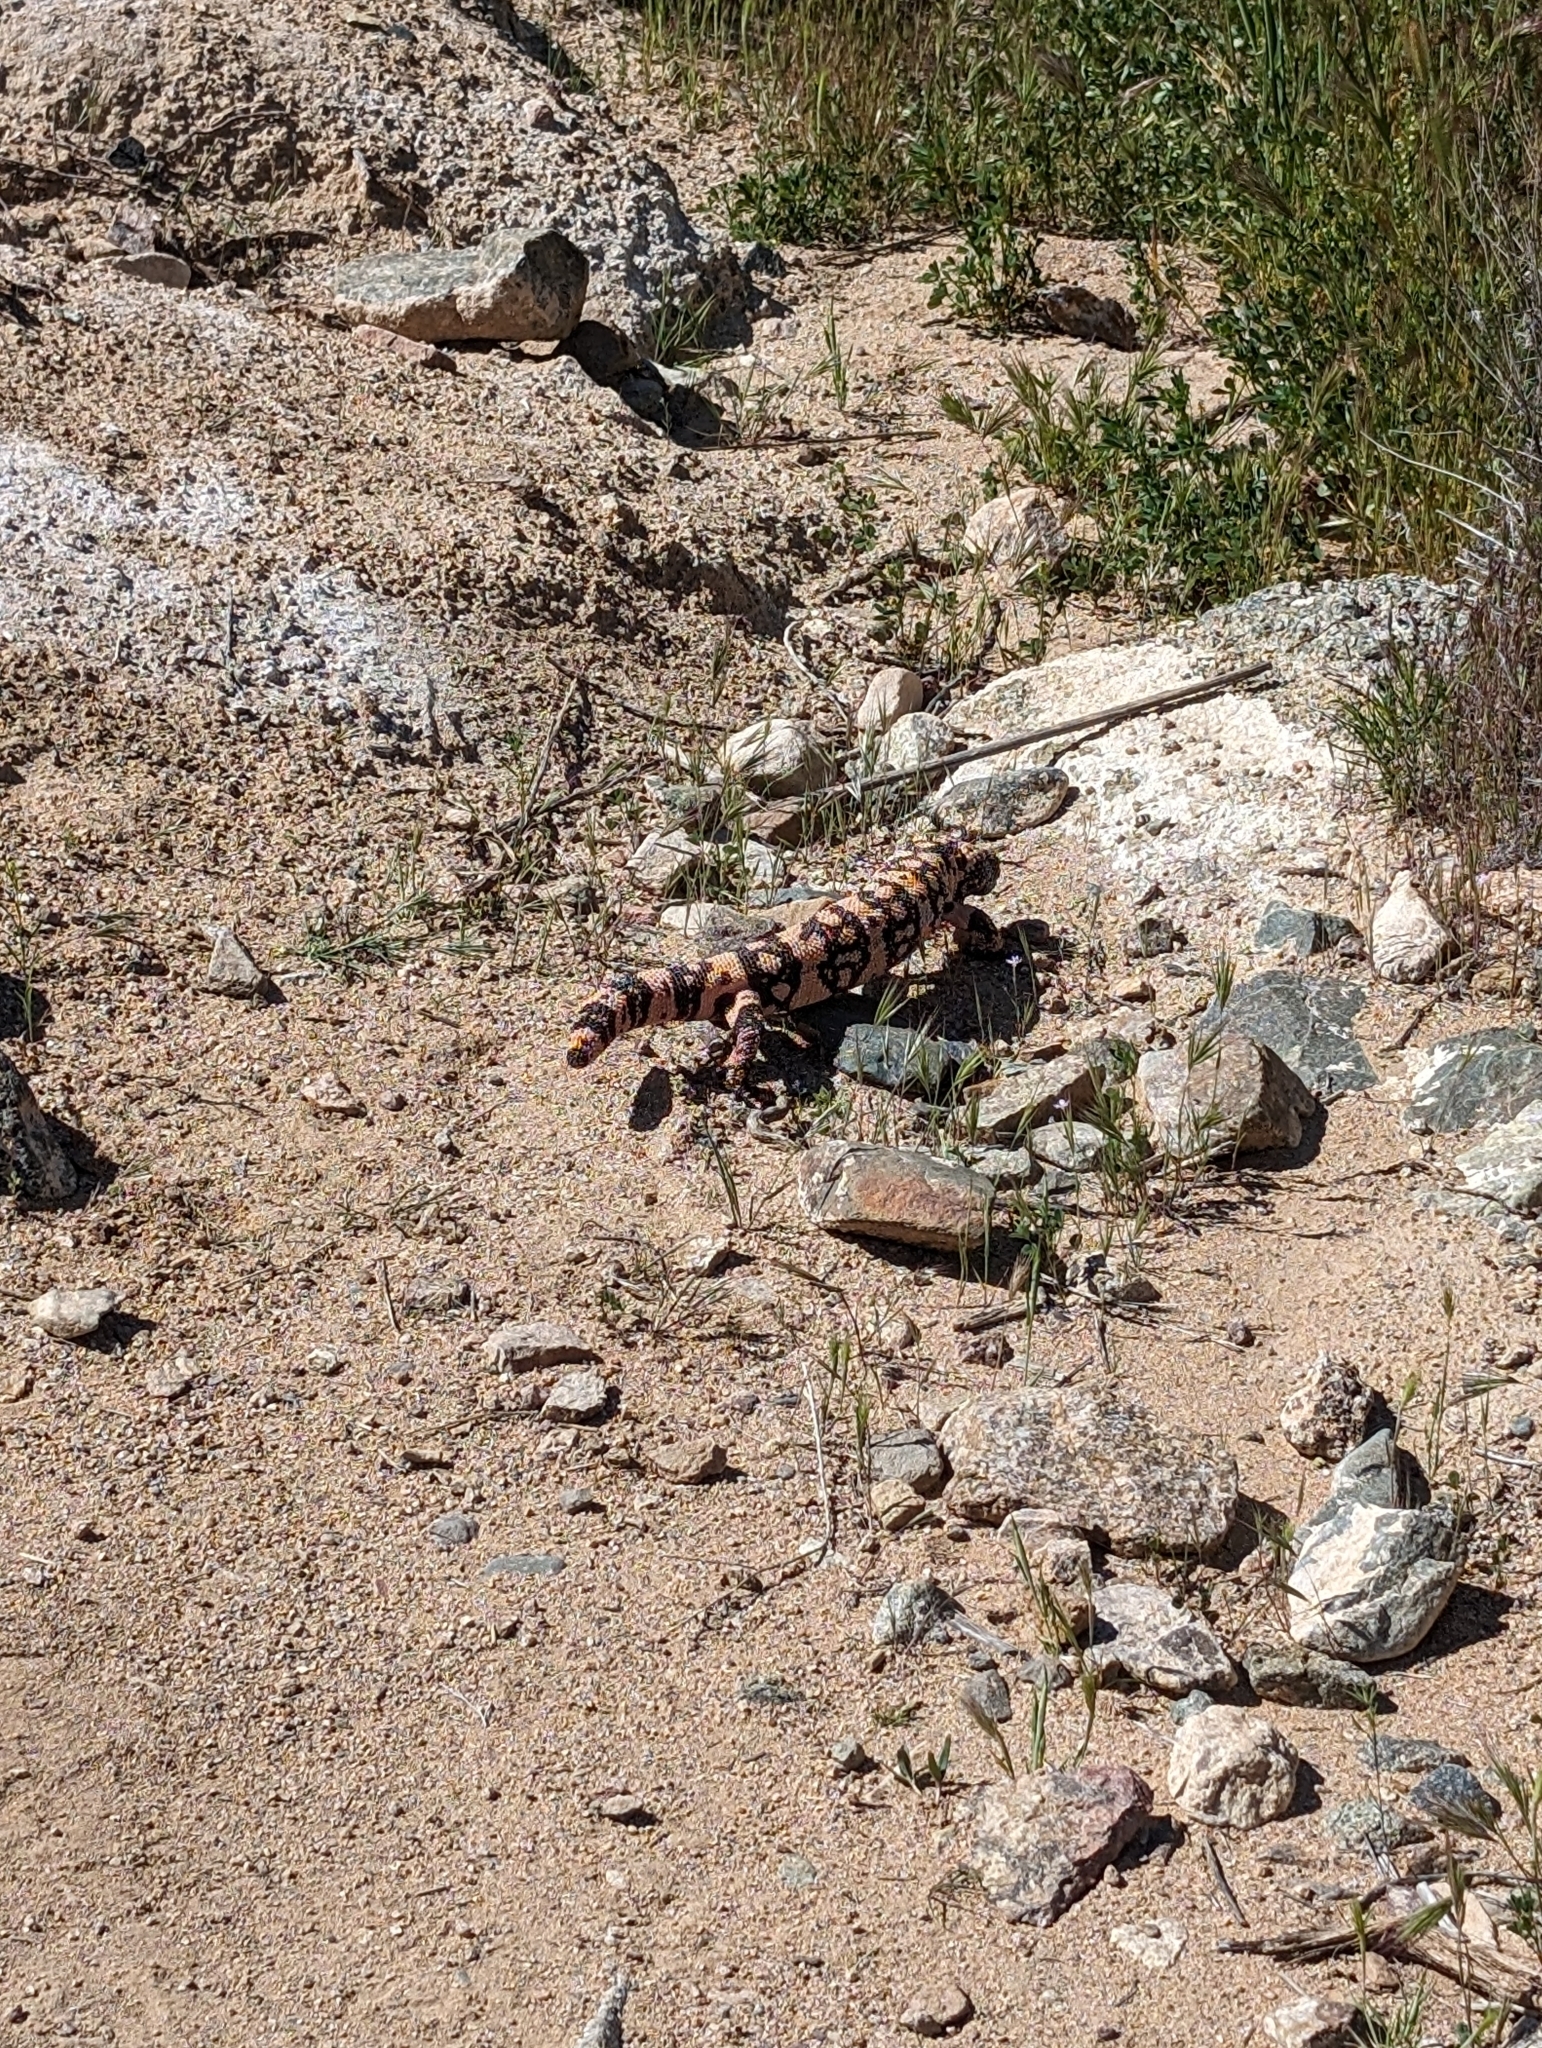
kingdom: Animalia
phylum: Chordata
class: Squamata
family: Helodermatidae
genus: Heloderma
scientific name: Heloderma suspectum
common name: Gila monster
